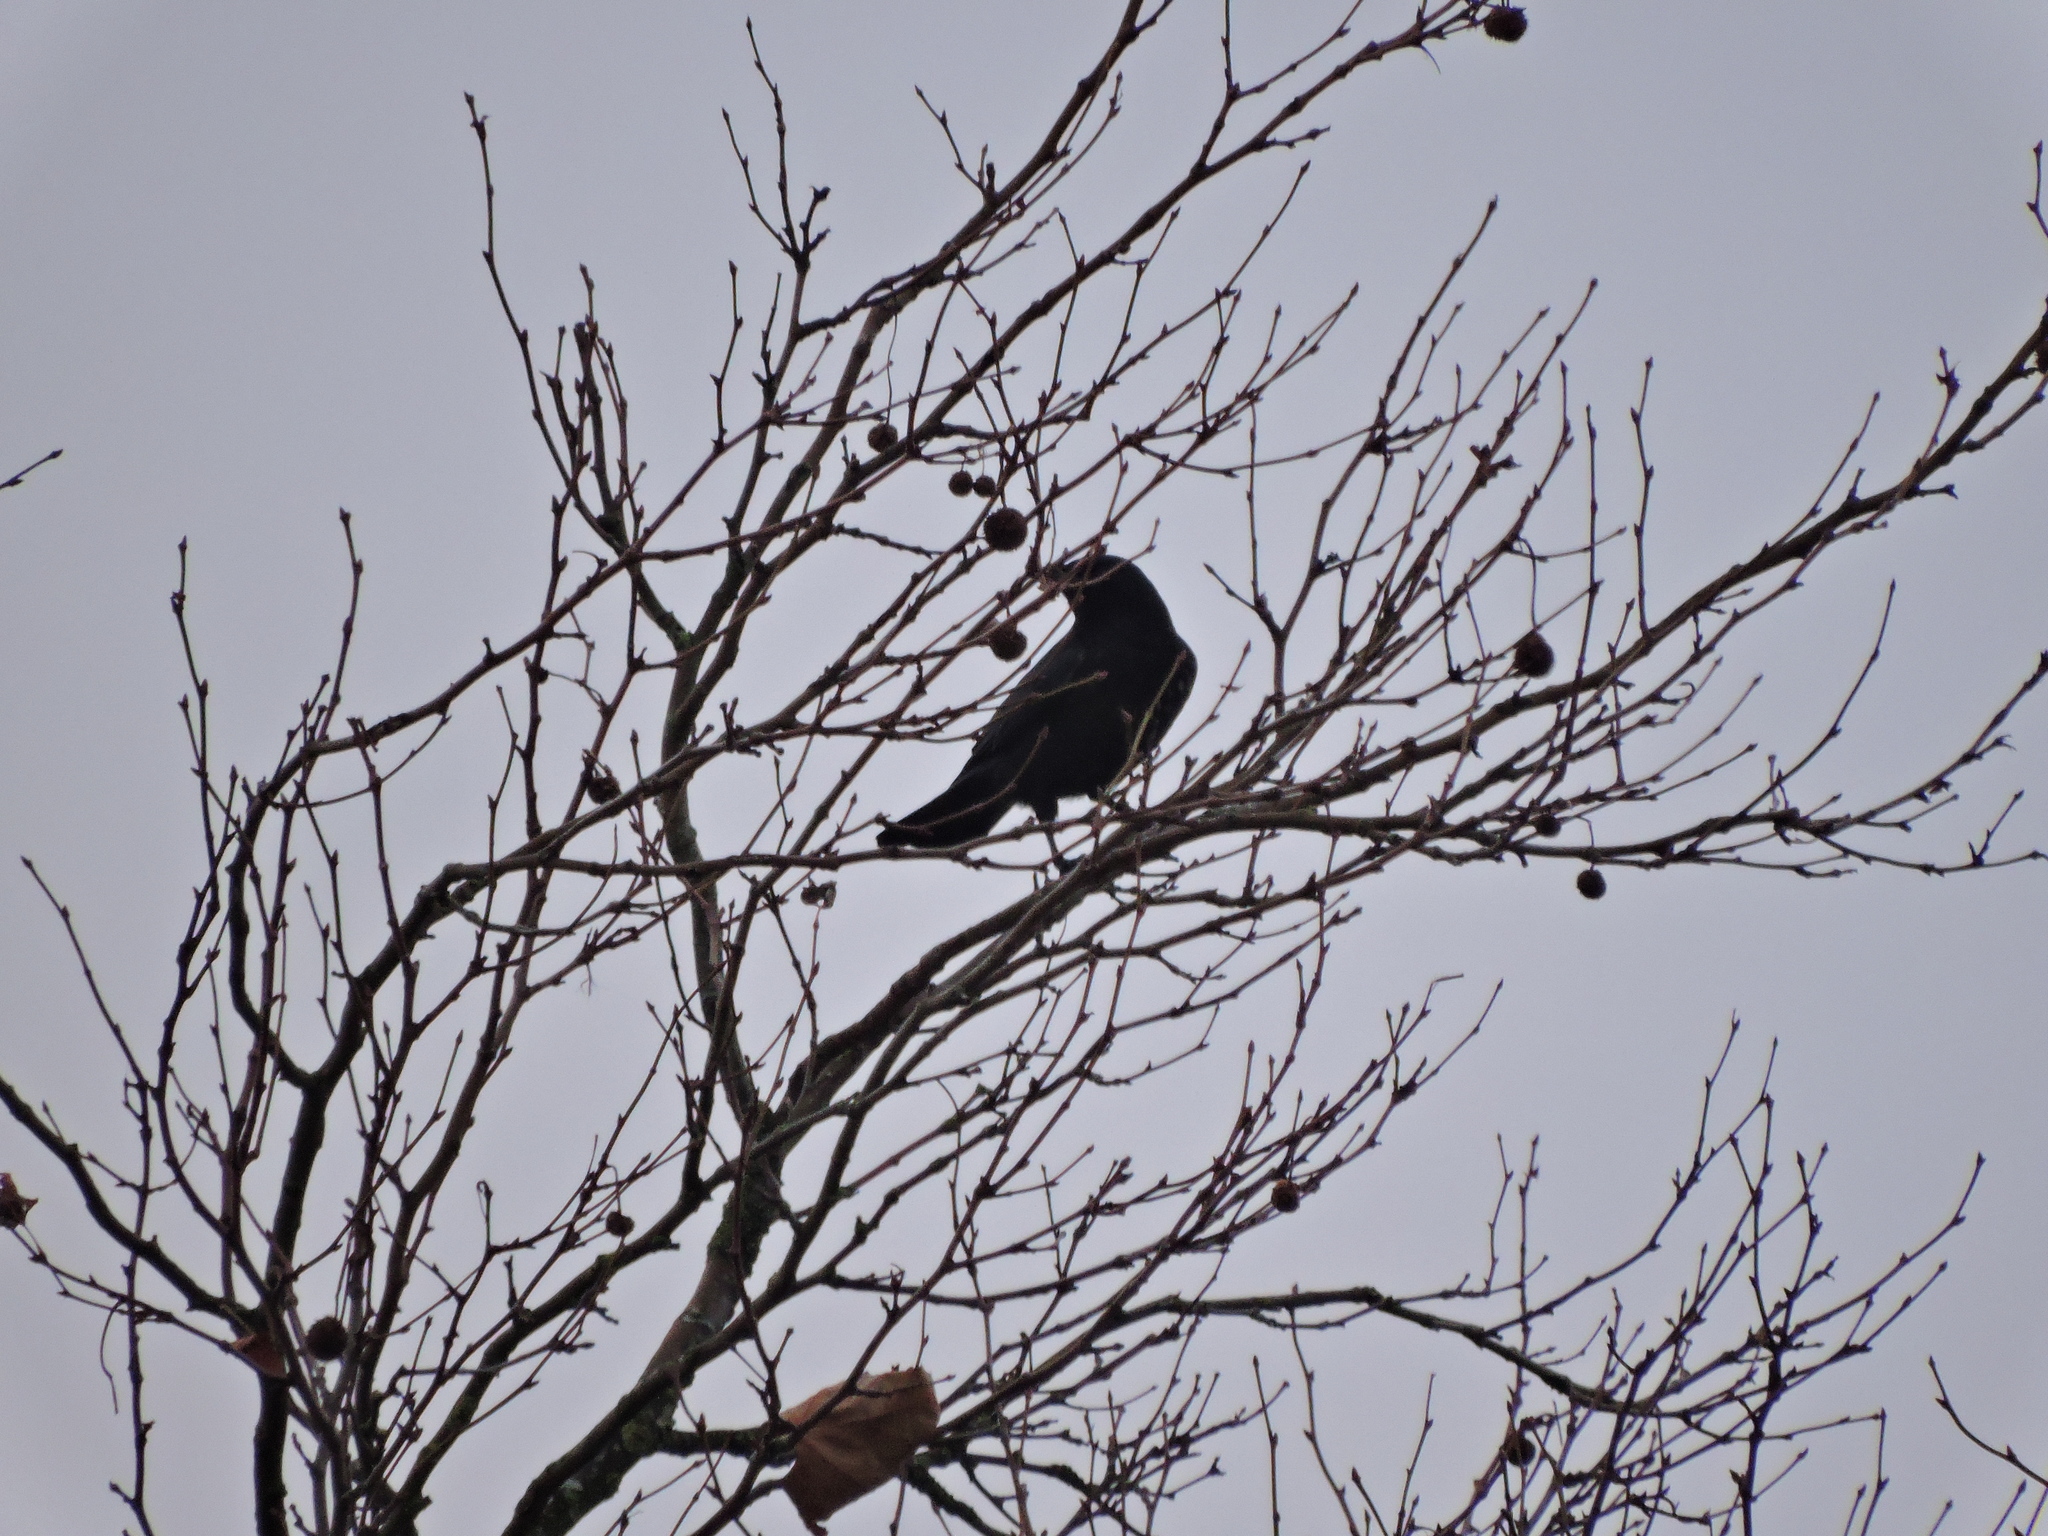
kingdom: Animalia
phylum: Chordata
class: Aves
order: Passeriformes
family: Corvidae
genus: Corvus
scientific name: Corvus corone
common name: Carrion crow
